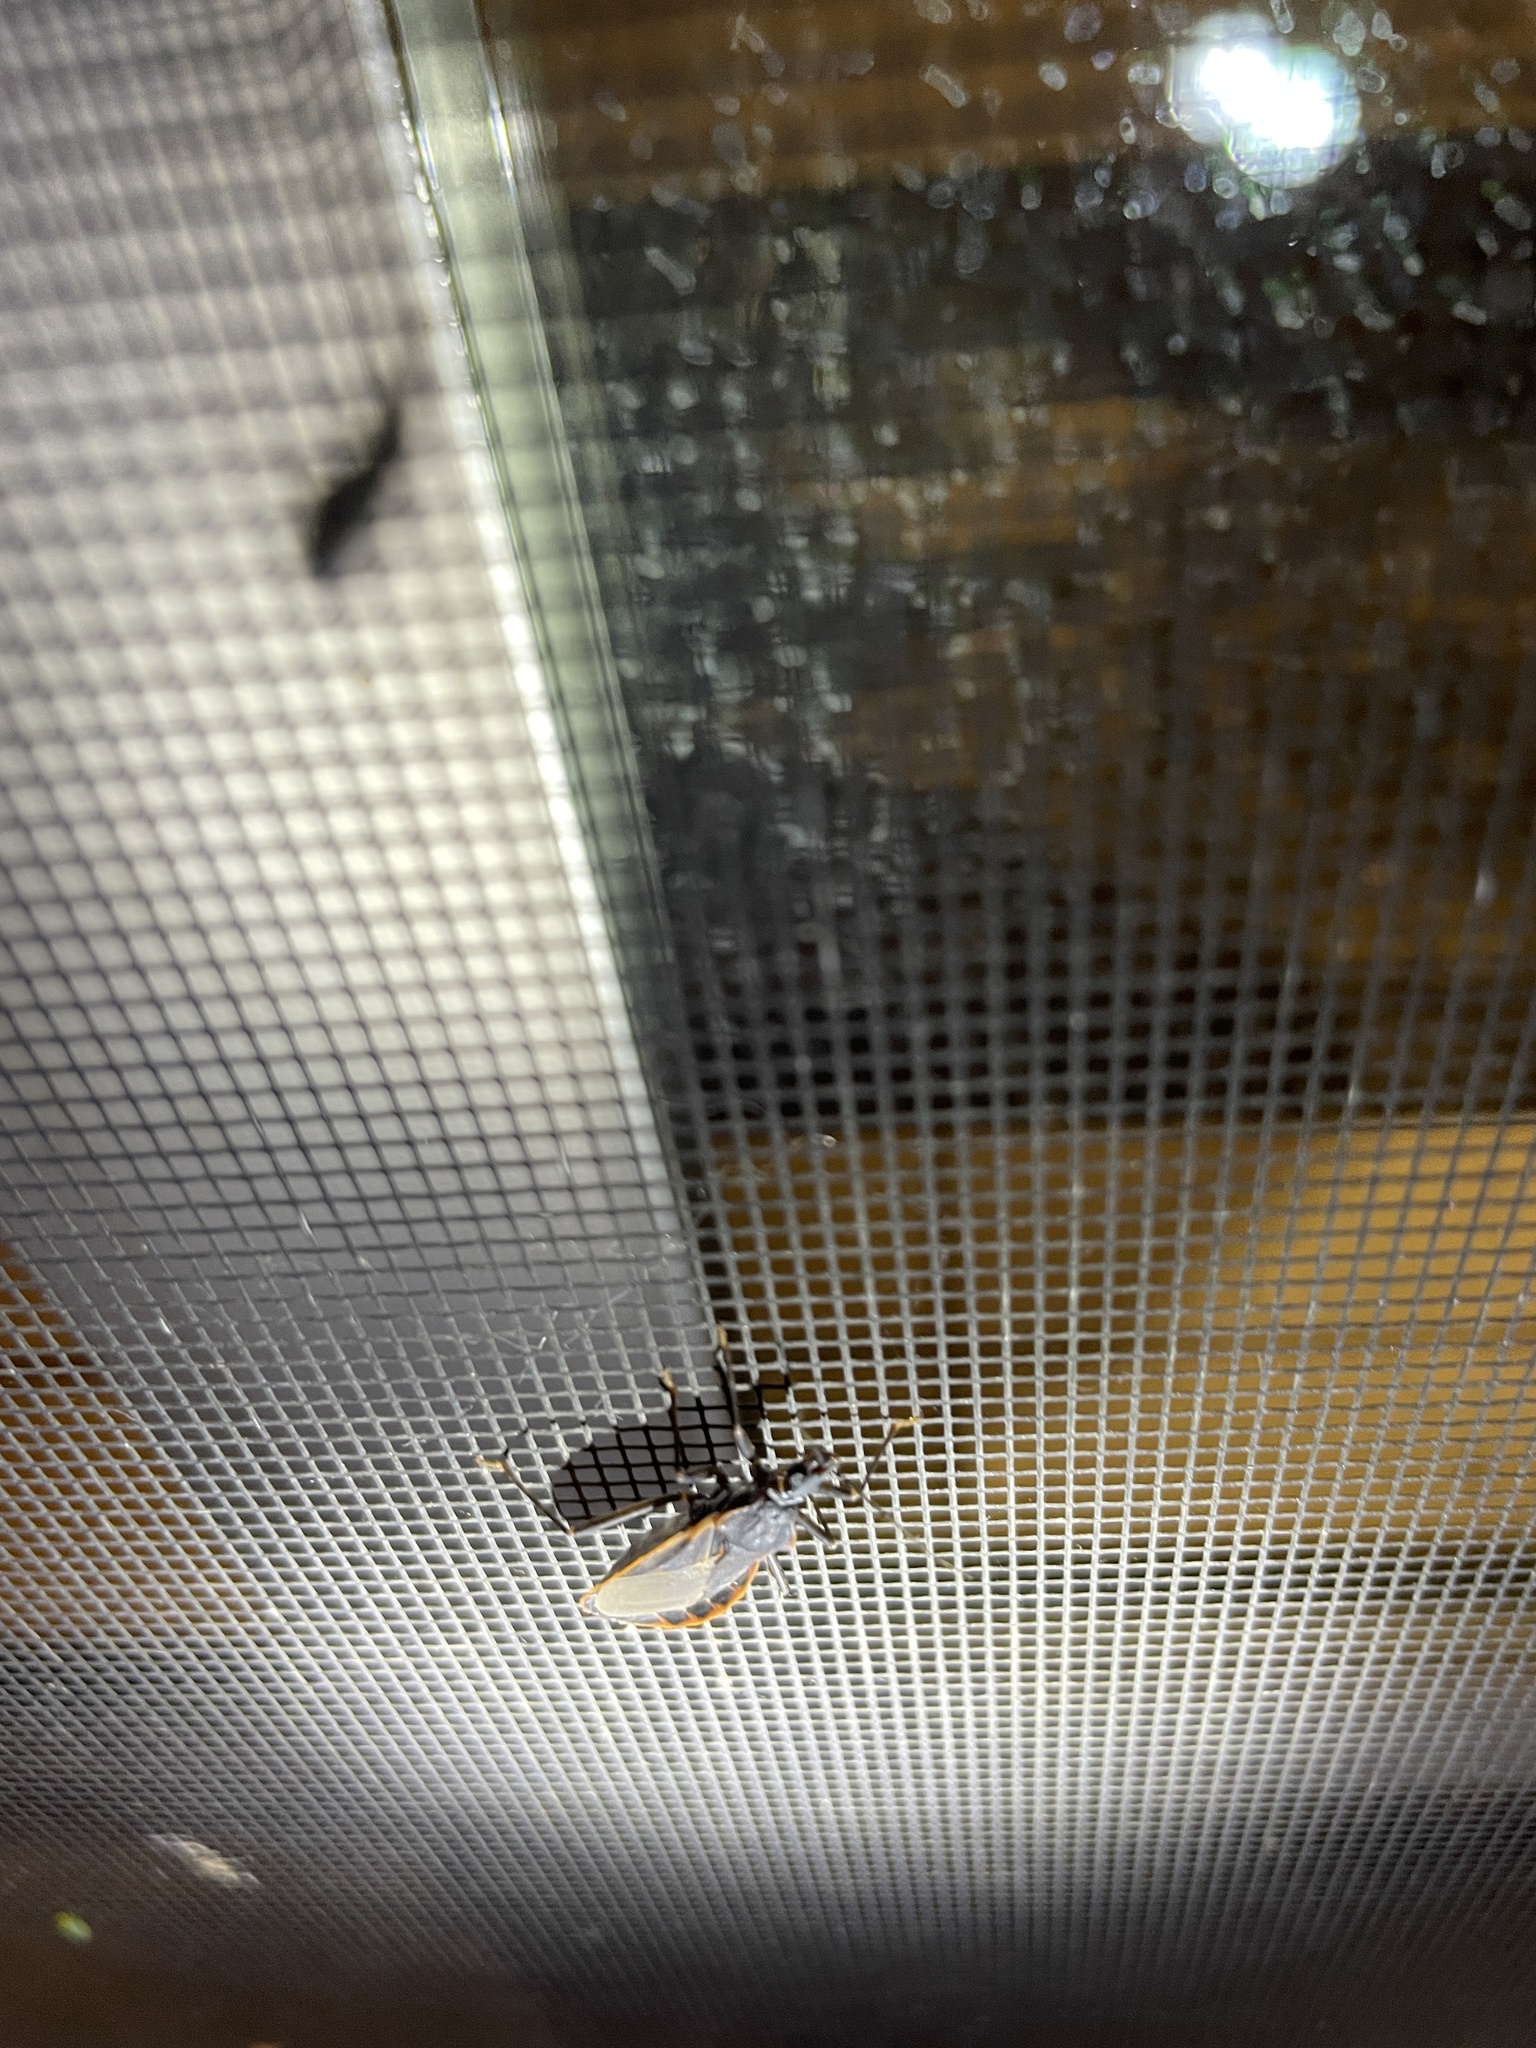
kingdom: Animalia
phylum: Arthropoda
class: Insecta
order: Hemiptera
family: Reduviidae
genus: Triatoma
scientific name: Triatoma rubida
